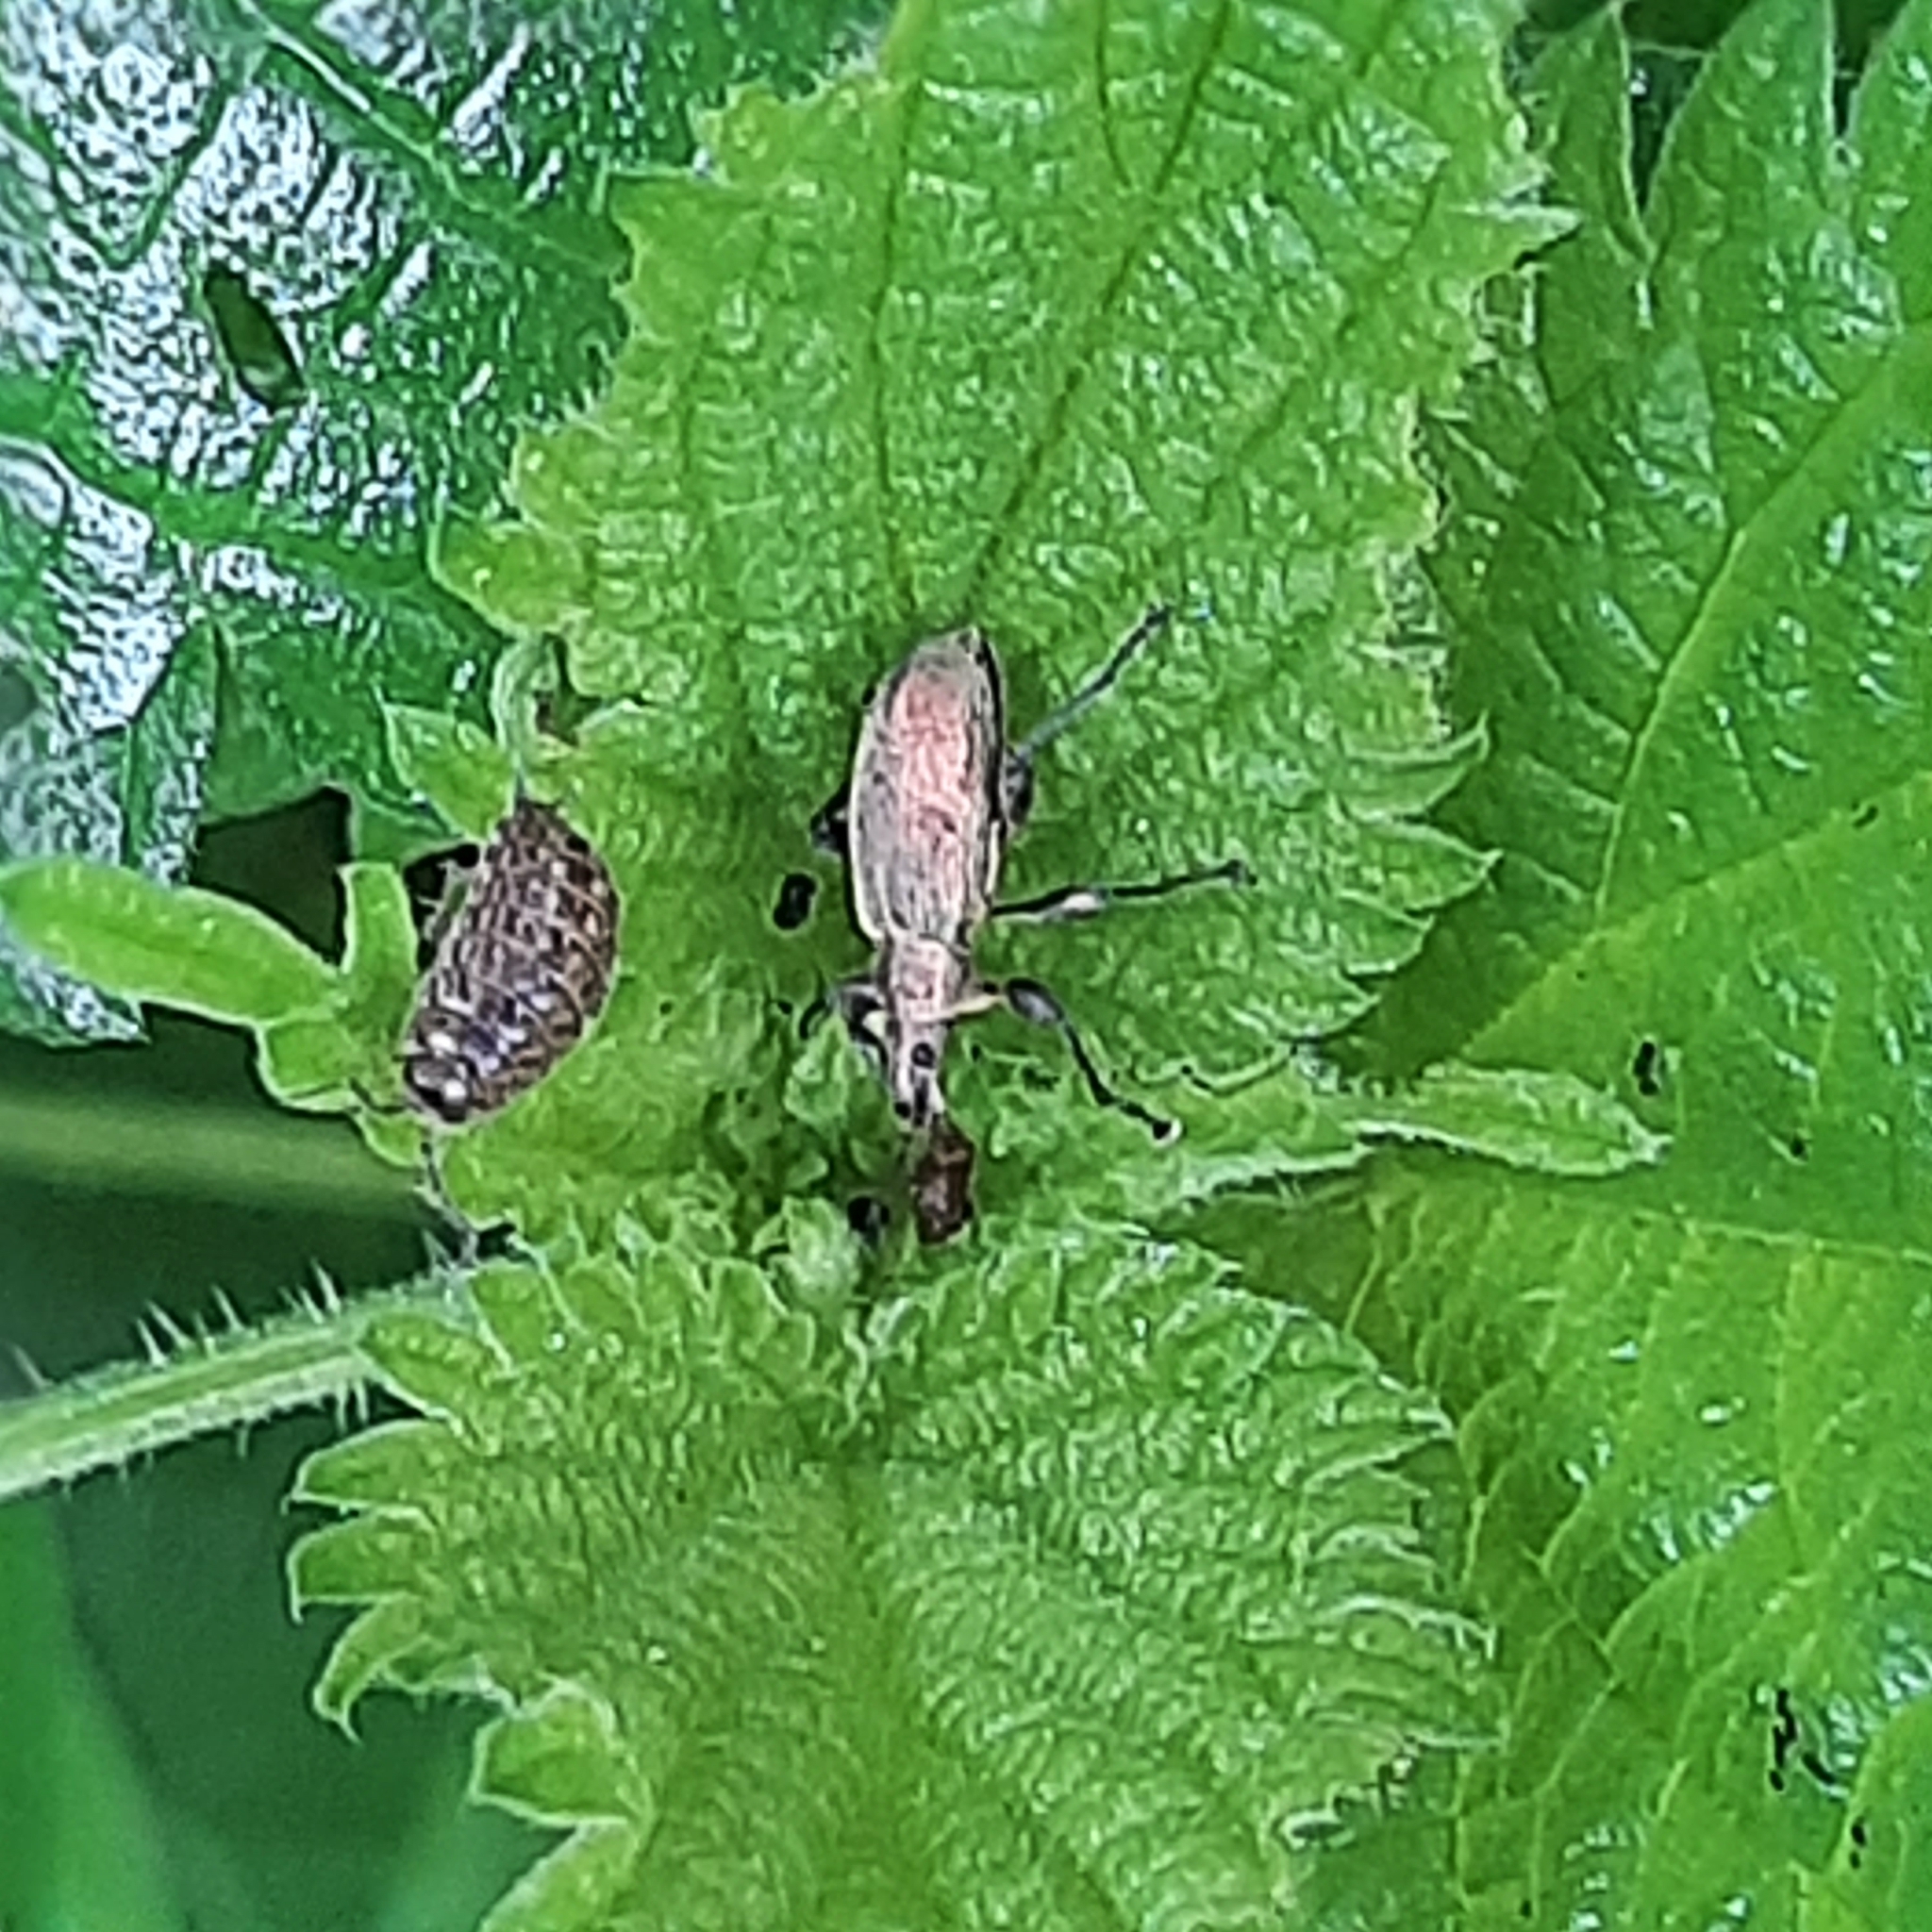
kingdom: Animalia
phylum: Arthropoda
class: Insecta
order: Coleoptera
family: Curculionidae
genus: Phyllobius
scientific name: Phyllobius pomaceus
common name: Green nettle weevil
